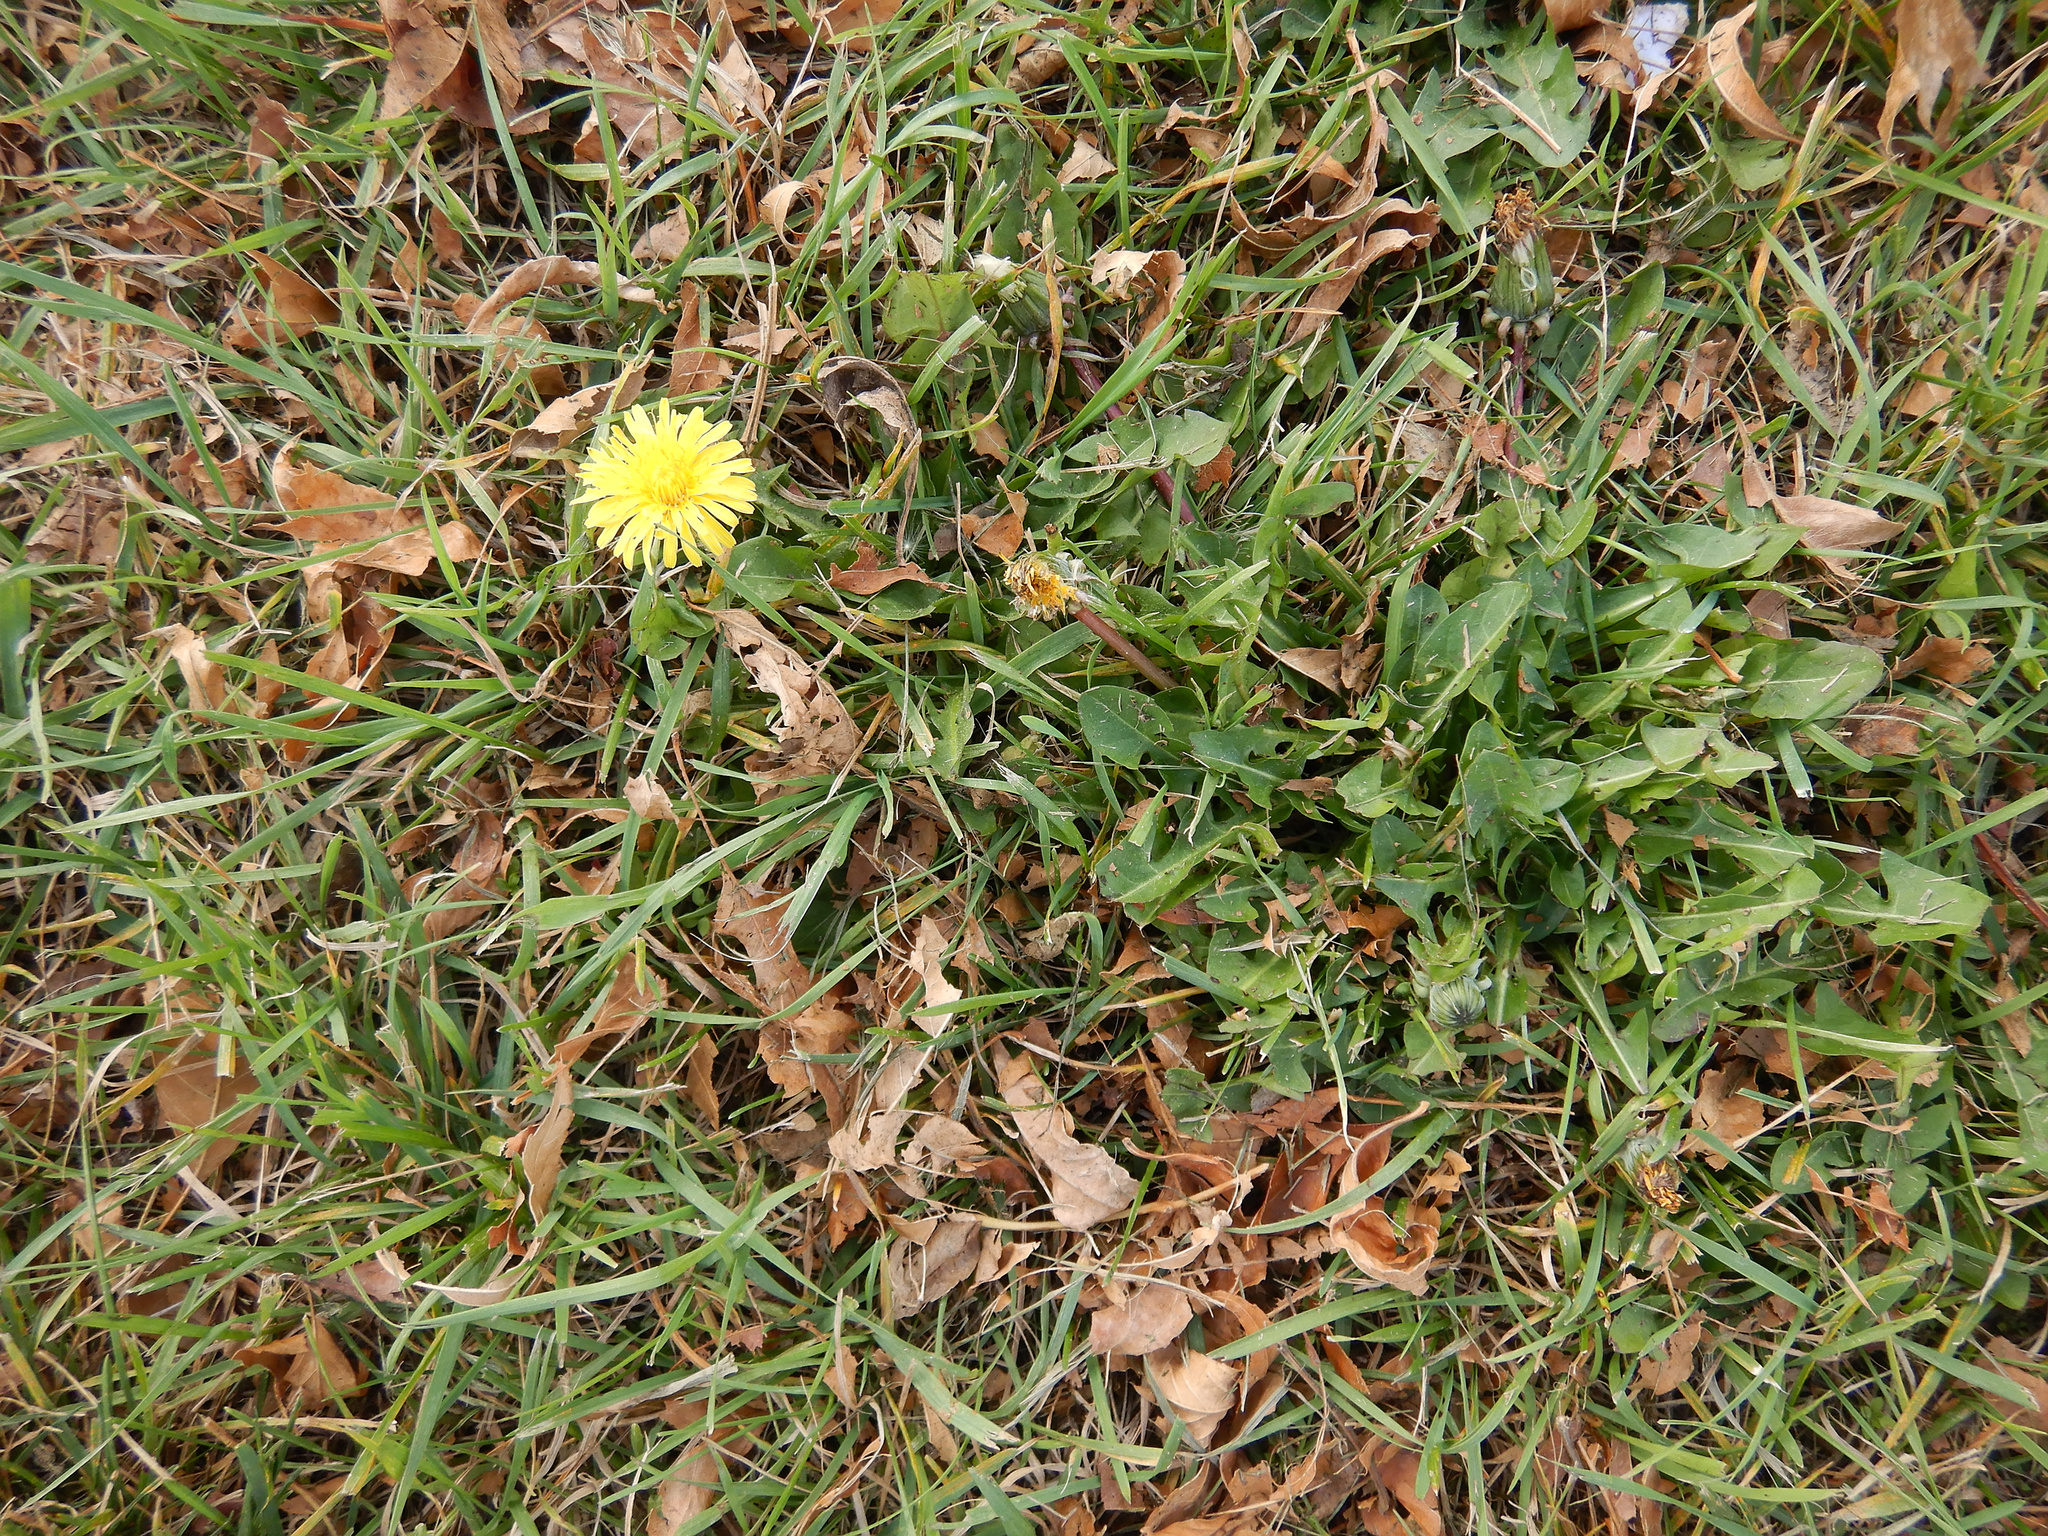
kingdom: Plantae
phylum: Tracheophyta
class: Magnoliopsida
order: Asterales
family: Asteraceae
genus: Taraxacum
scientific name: Taraxacum officinale
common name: Common dandelion
